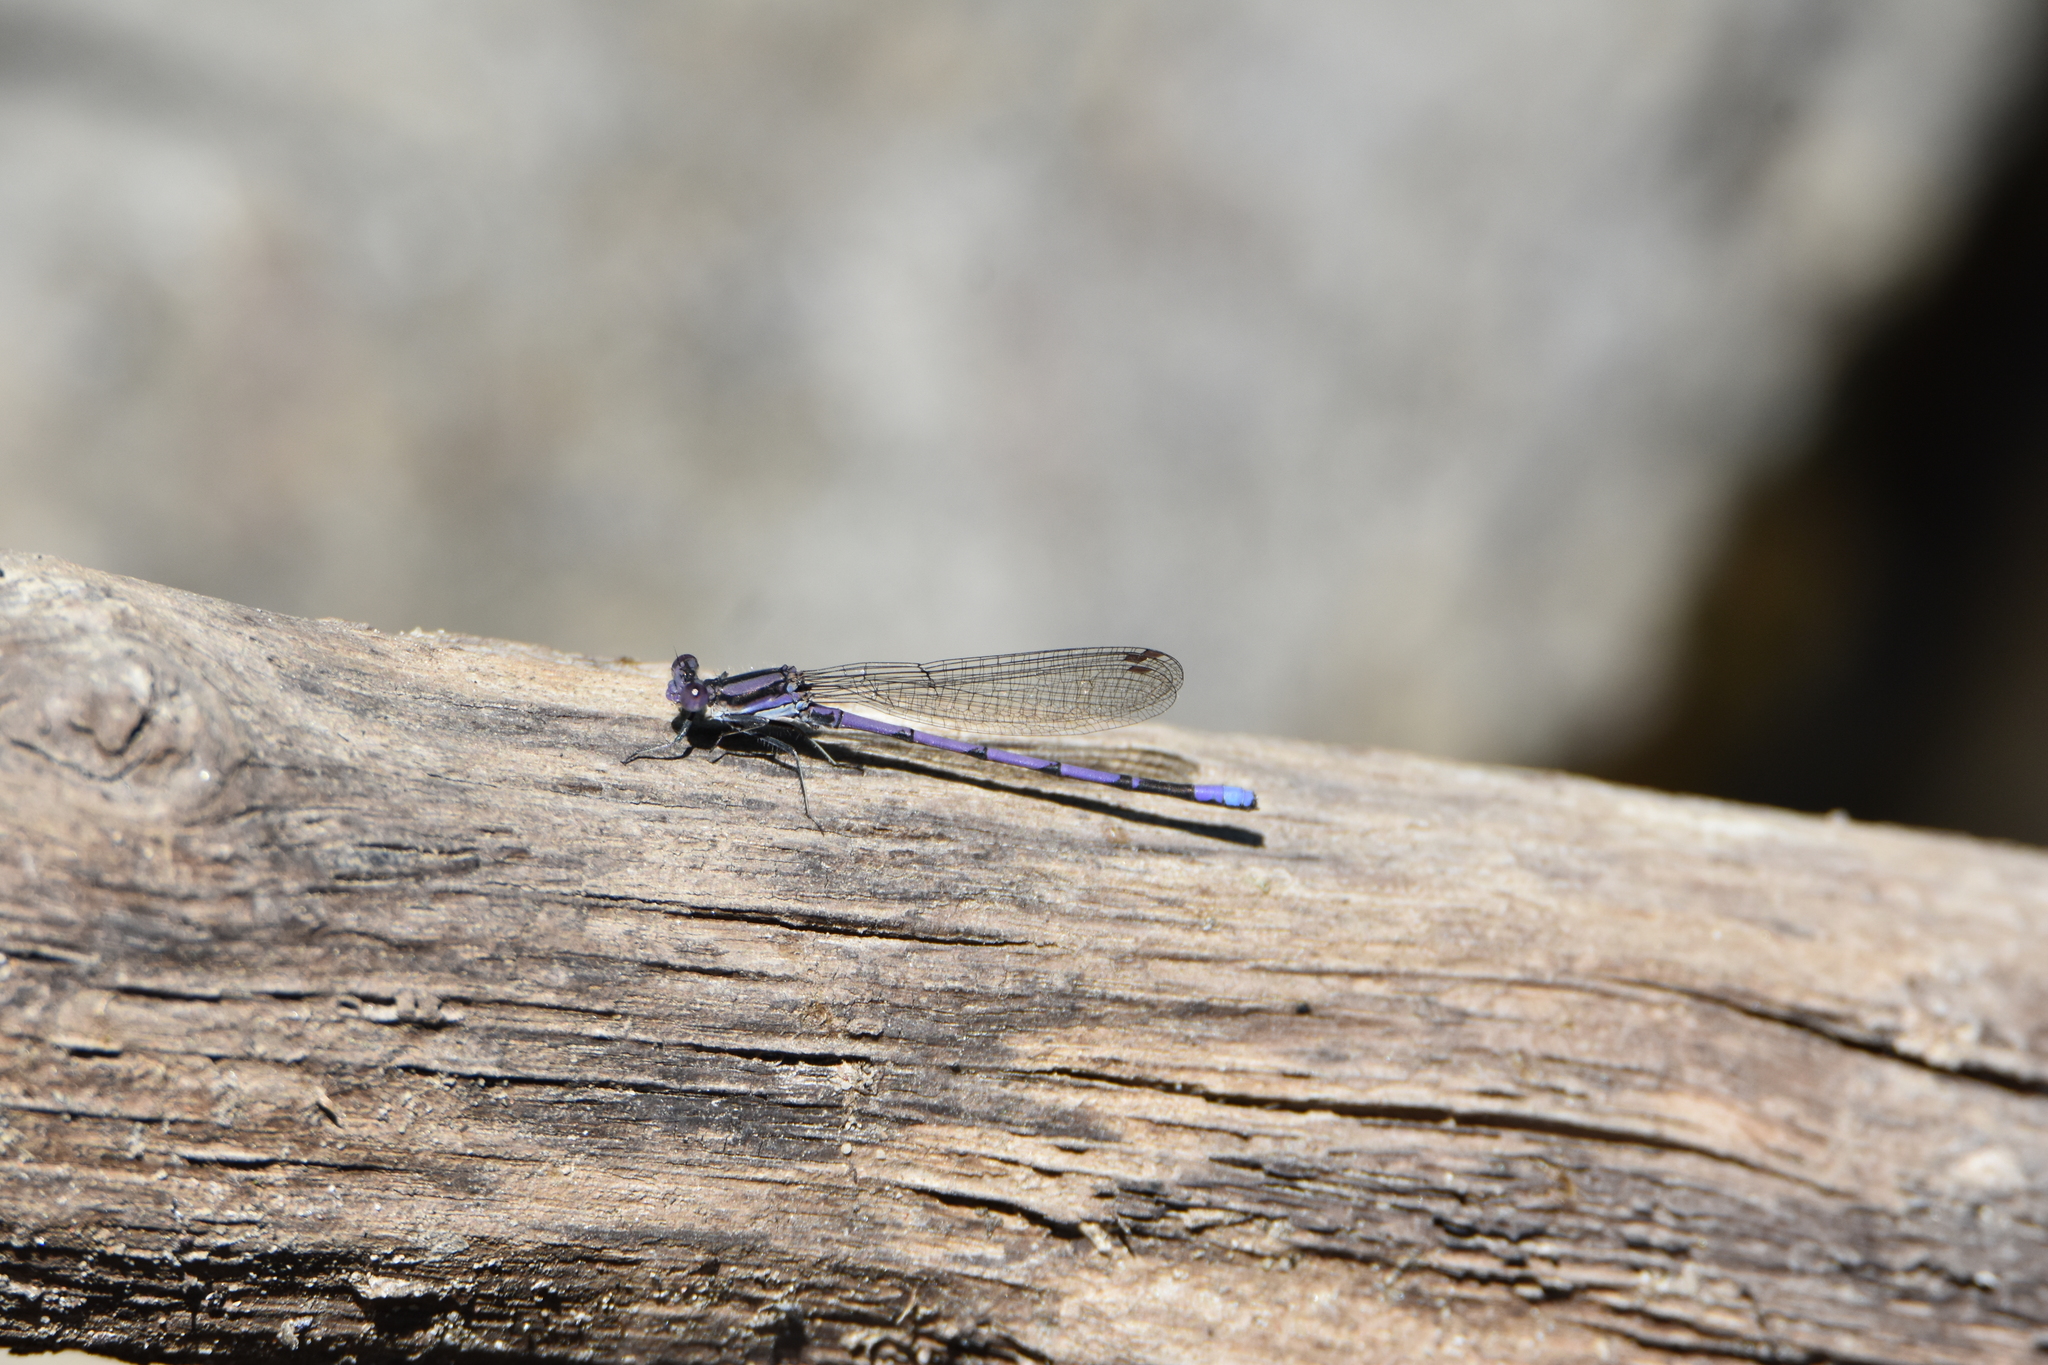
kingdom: Animalia
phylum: Arthropoda
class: Insecta
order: Odonata
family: Coenagrionidae
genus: Argia
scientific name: Argia fumipennis
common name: Variable dancer
